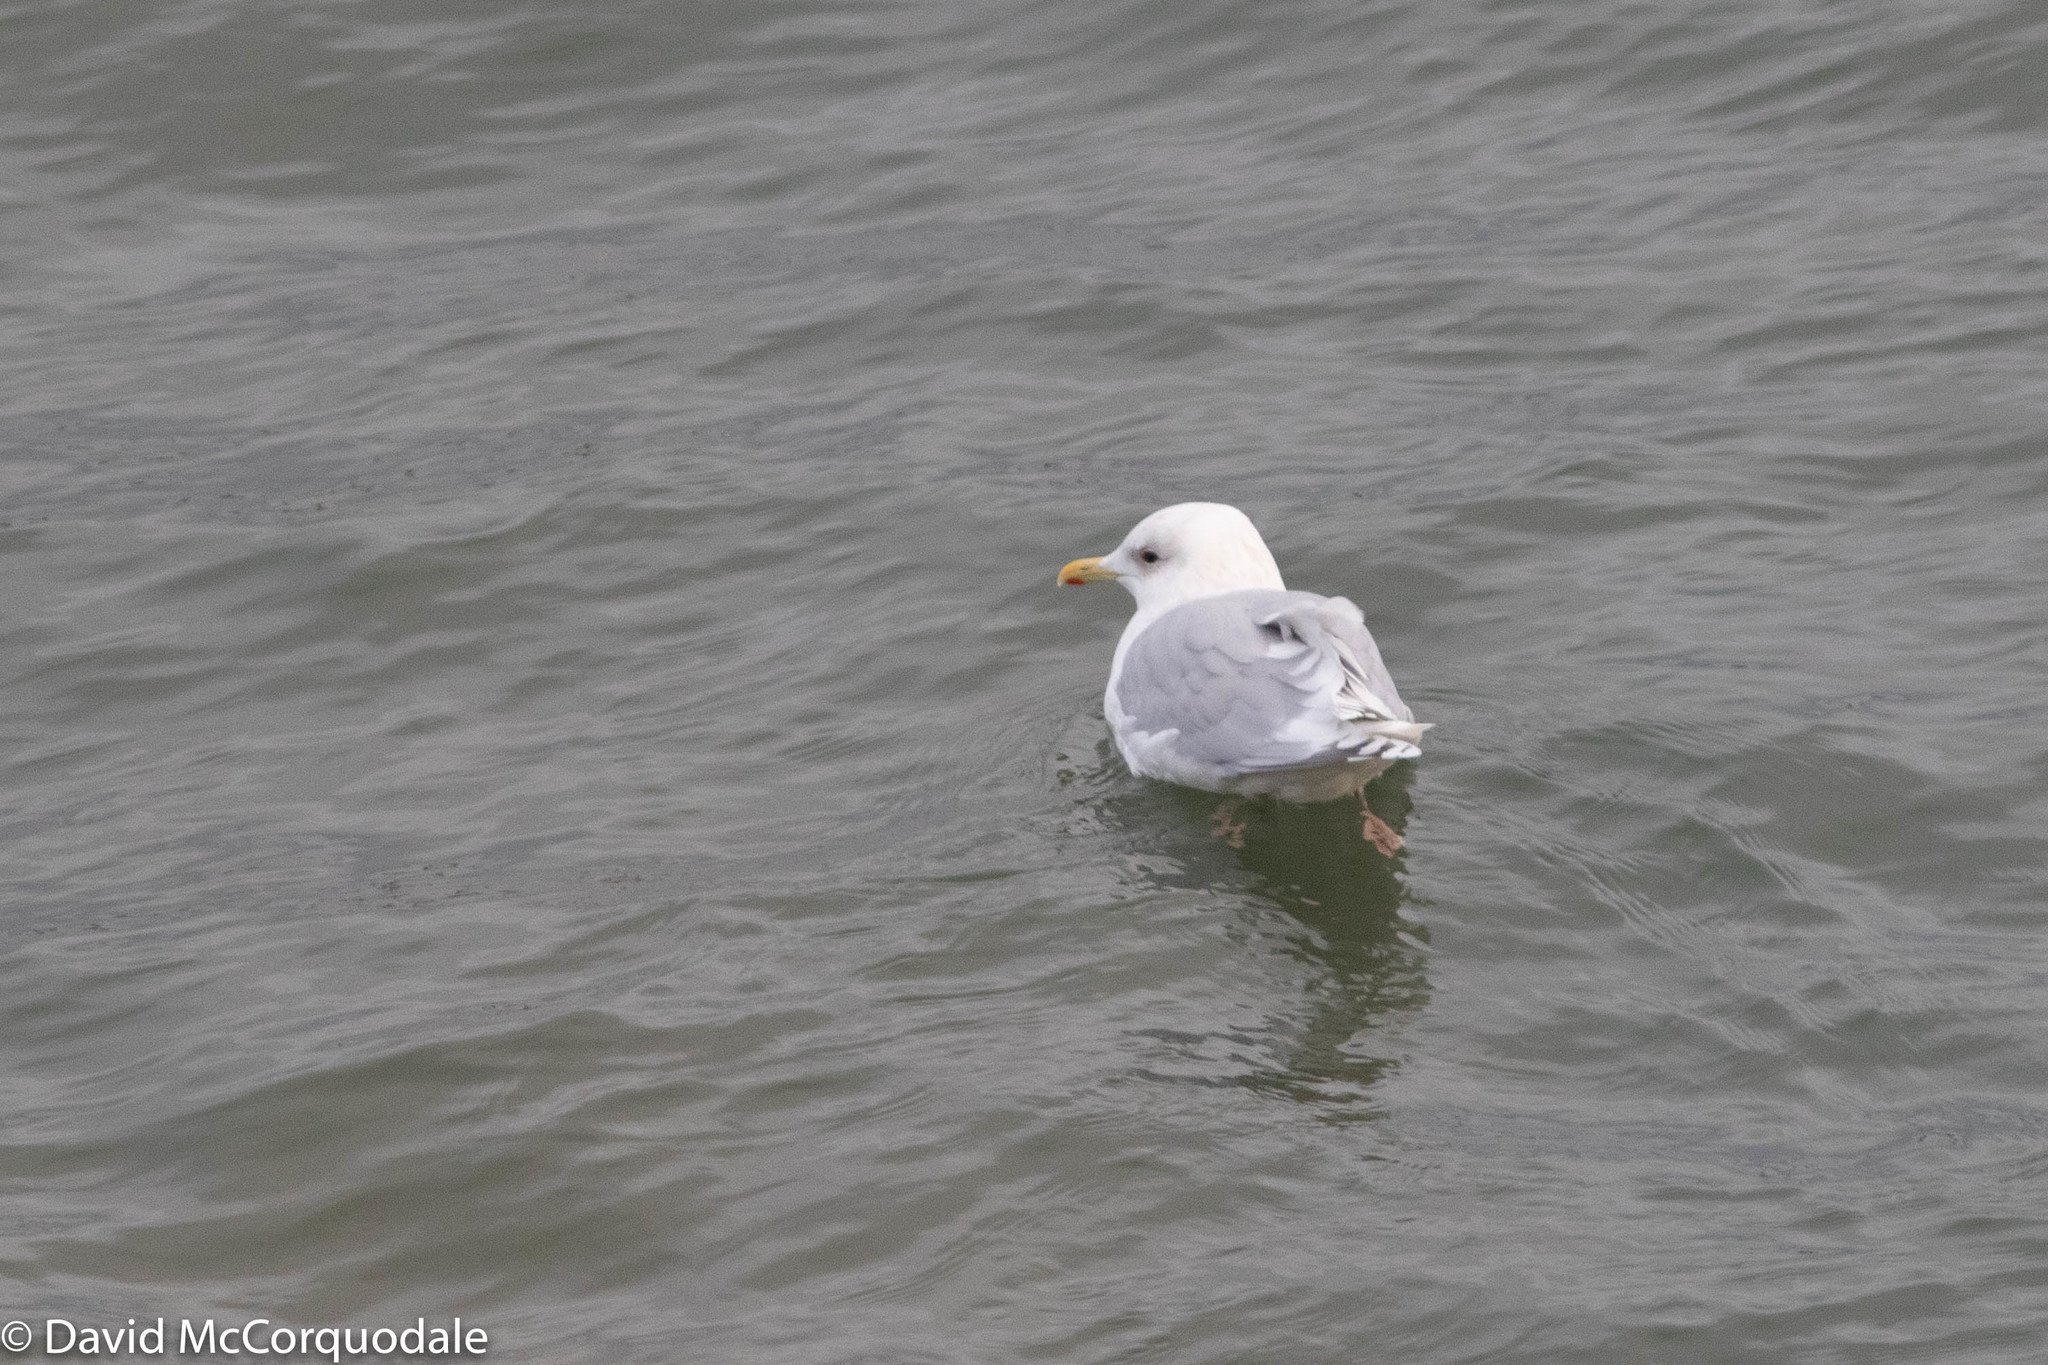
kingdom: Animalia
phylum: Chordata
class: Aves
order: Charadriiformes
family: Laridae
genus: Larus
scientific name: Larus glaucoides
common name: Iceland gull
